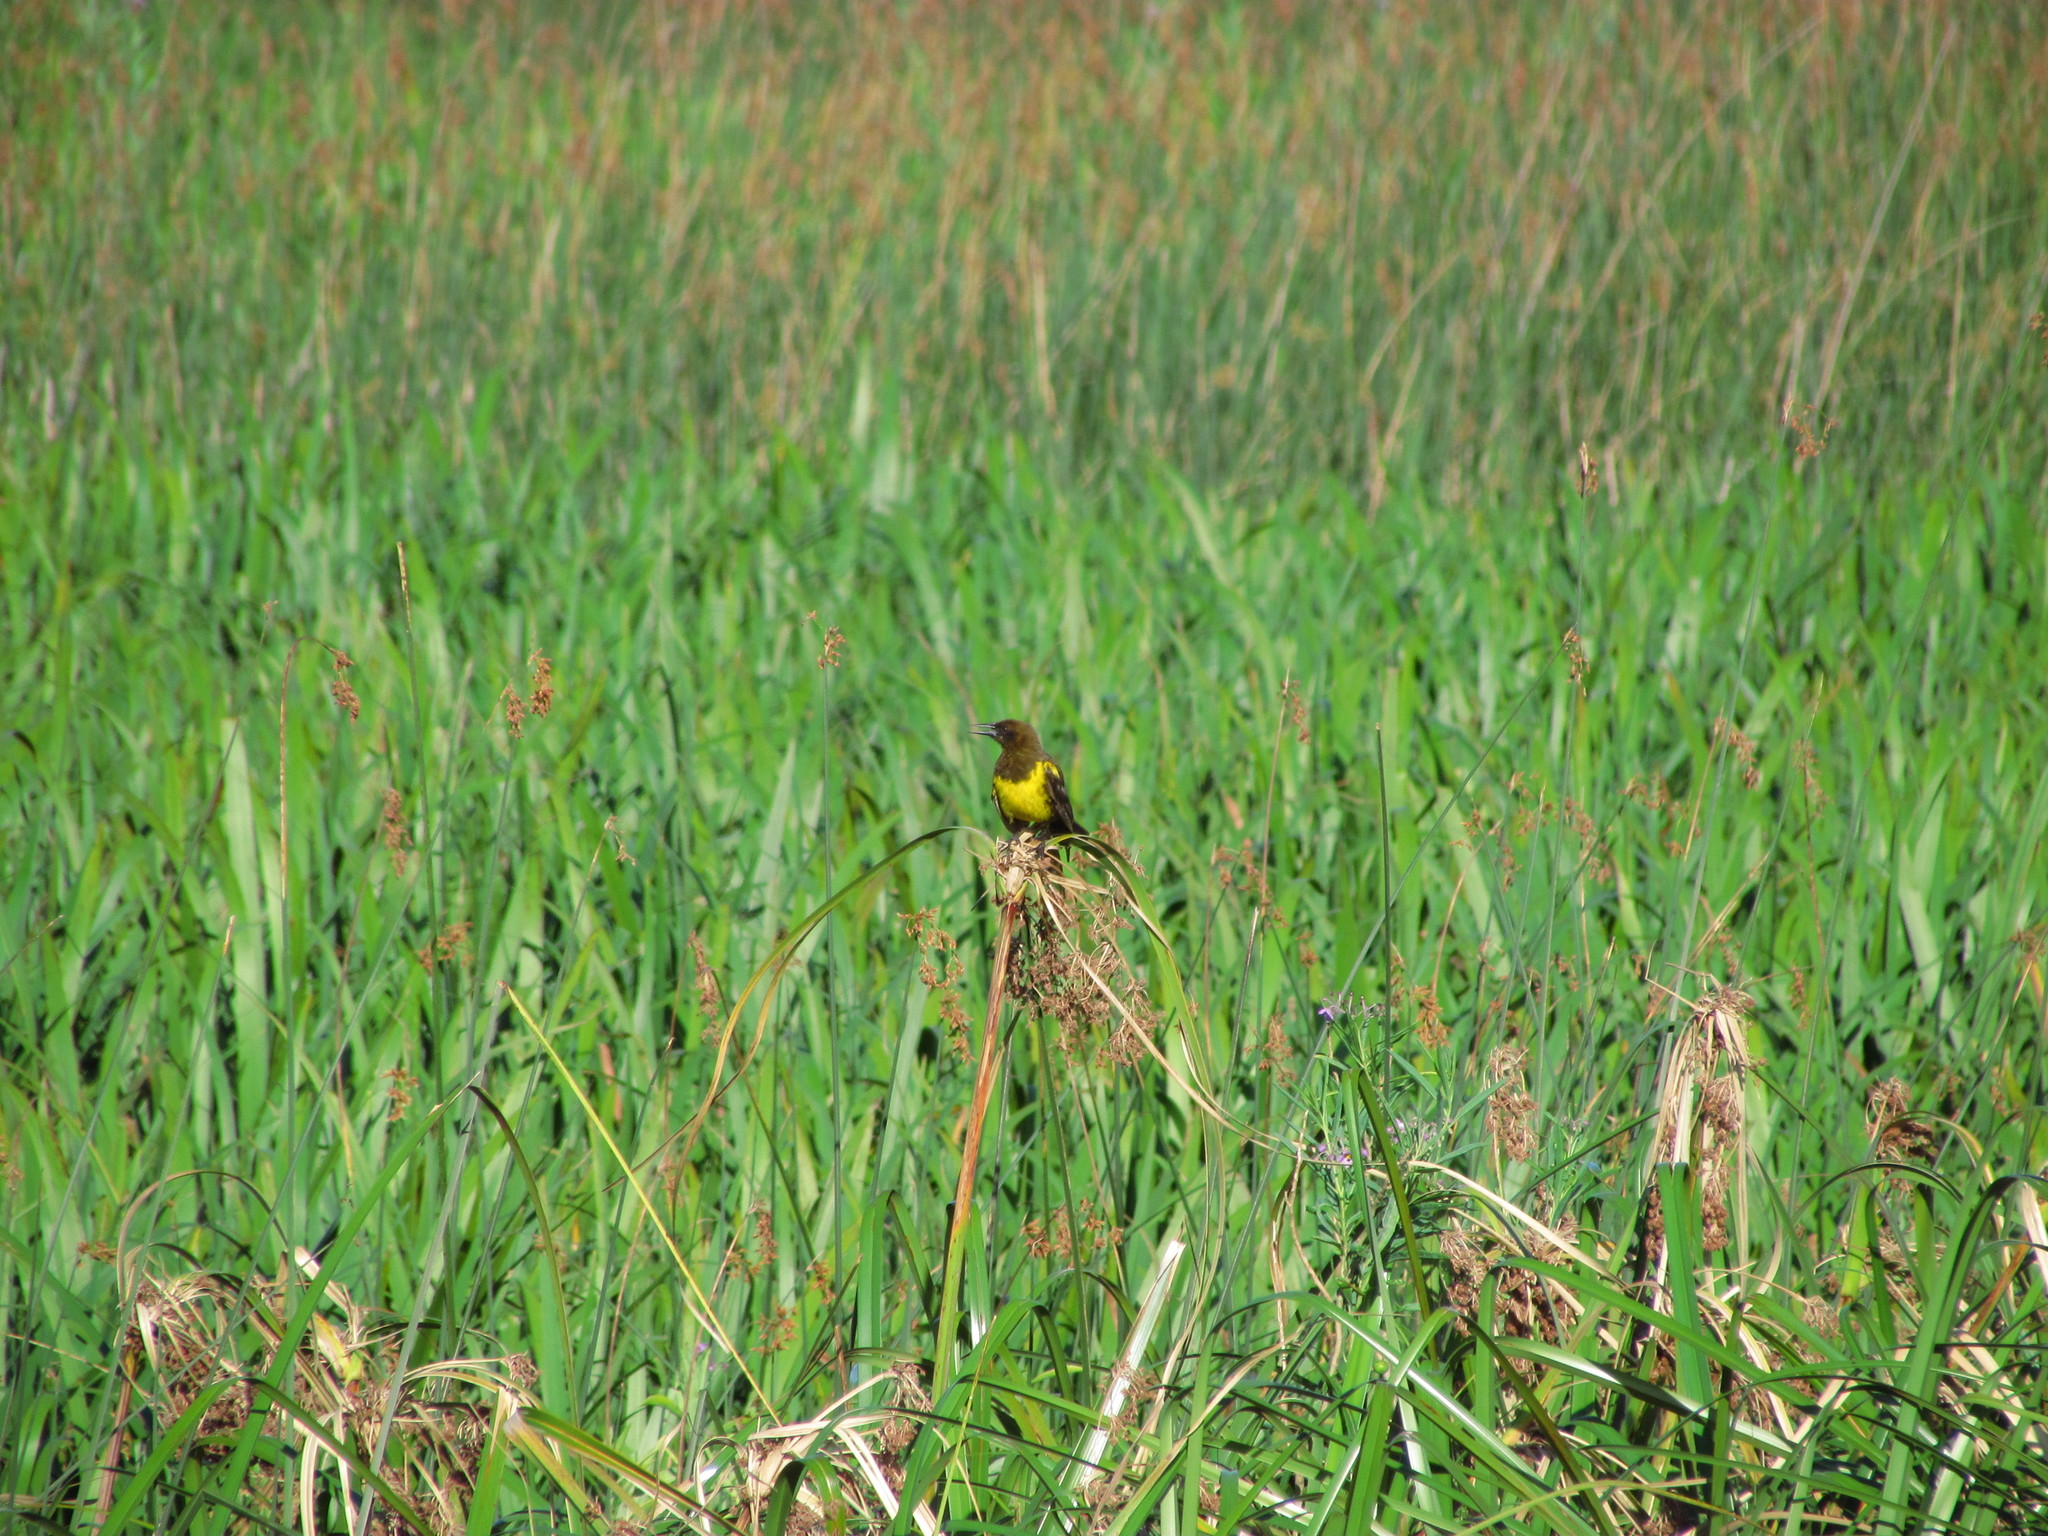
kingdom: Animalia
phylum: Chordata
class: Aves
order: Passeriformes
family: Icteridae
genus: Pseudoleistes
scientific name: Pseudoleistes virescens
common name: Brown-and-yellow marshbird
